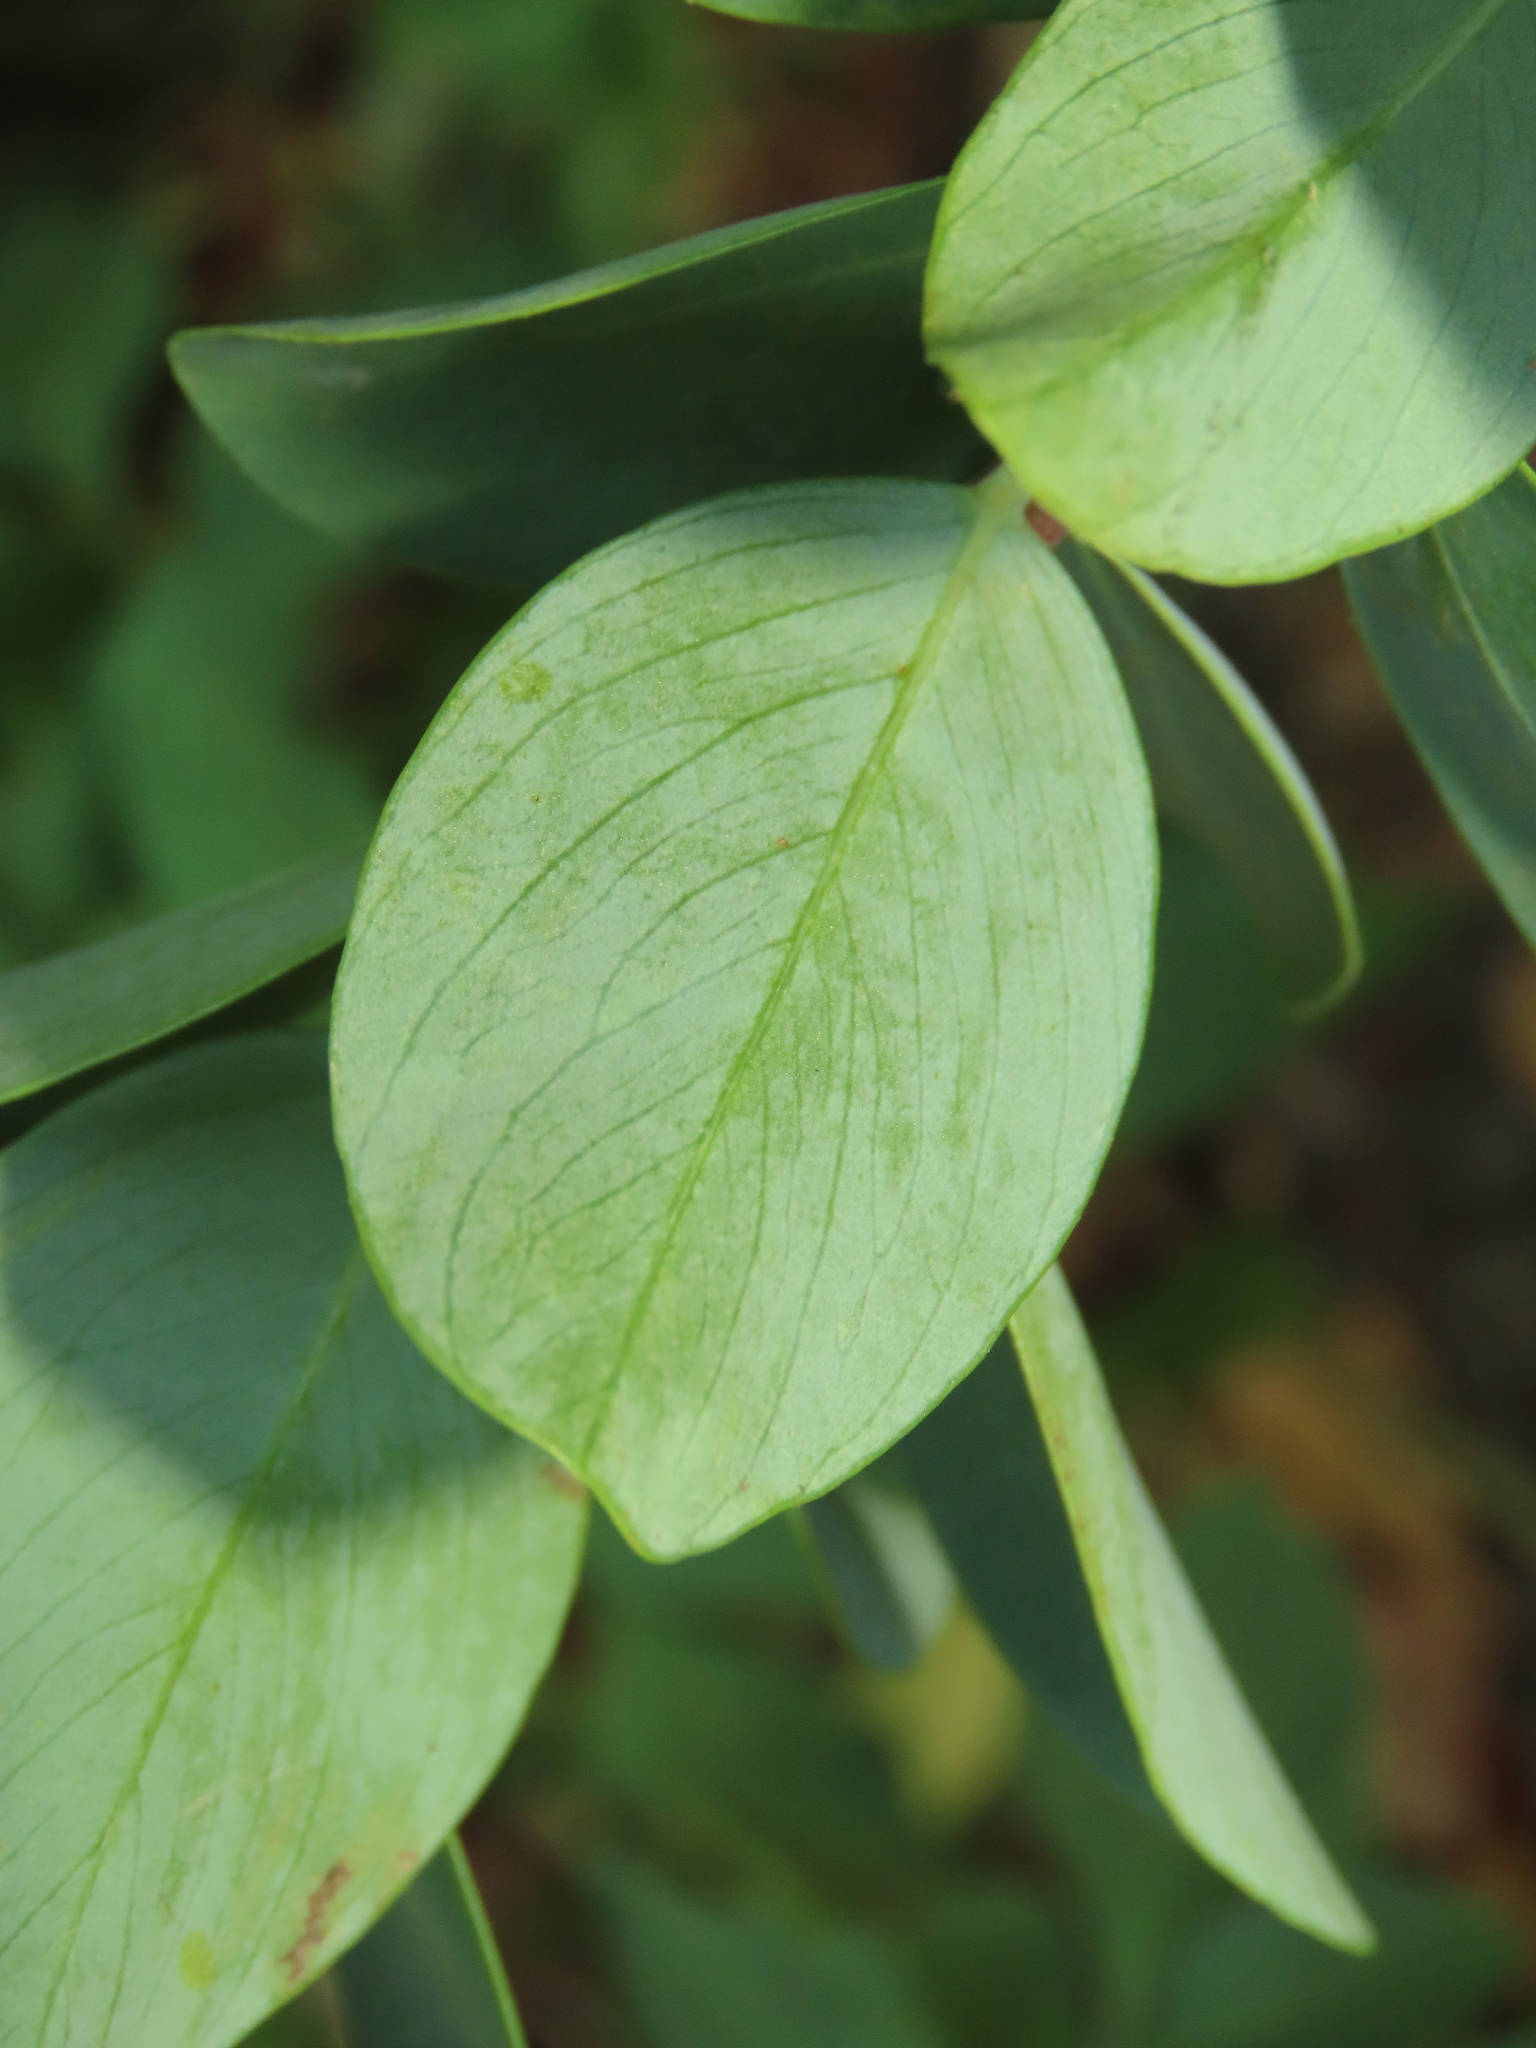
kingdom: Plantae
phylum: Tracheophyta
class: Magnoliopsida
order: Malvales
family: Thymelaeaceae
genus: Wikstroemia
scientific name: Wikstroemia indica
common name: Tiebush
